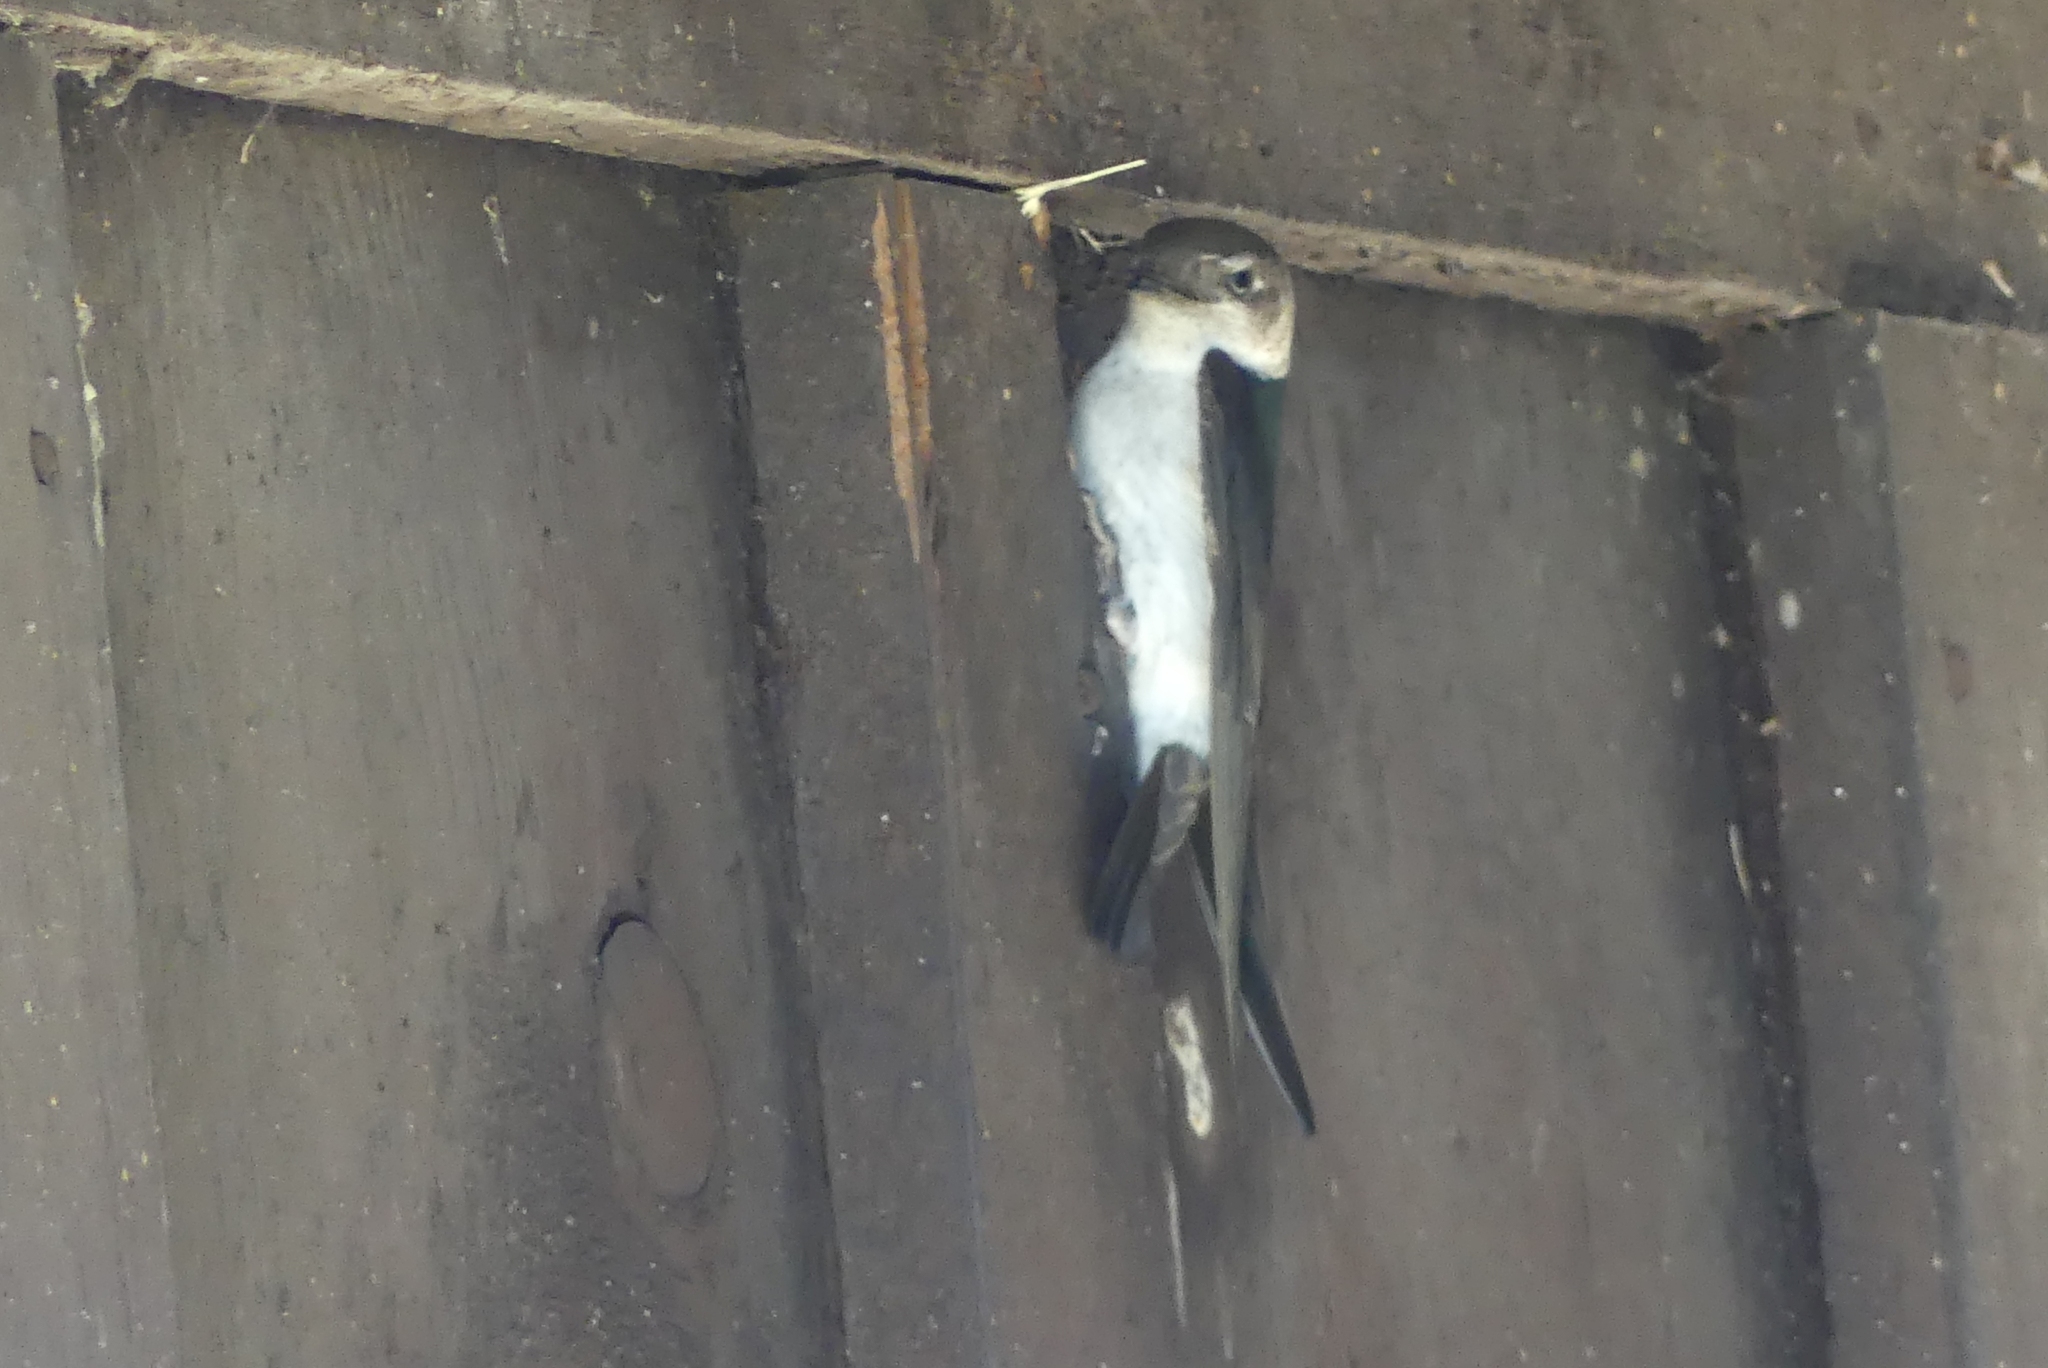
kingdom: Animalia
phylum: Chordata
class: Aves
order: Passeriformes
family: Hirundinidae
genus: Tachycineta
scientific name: Tachycineta thalassina
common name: Violet-green swallow
